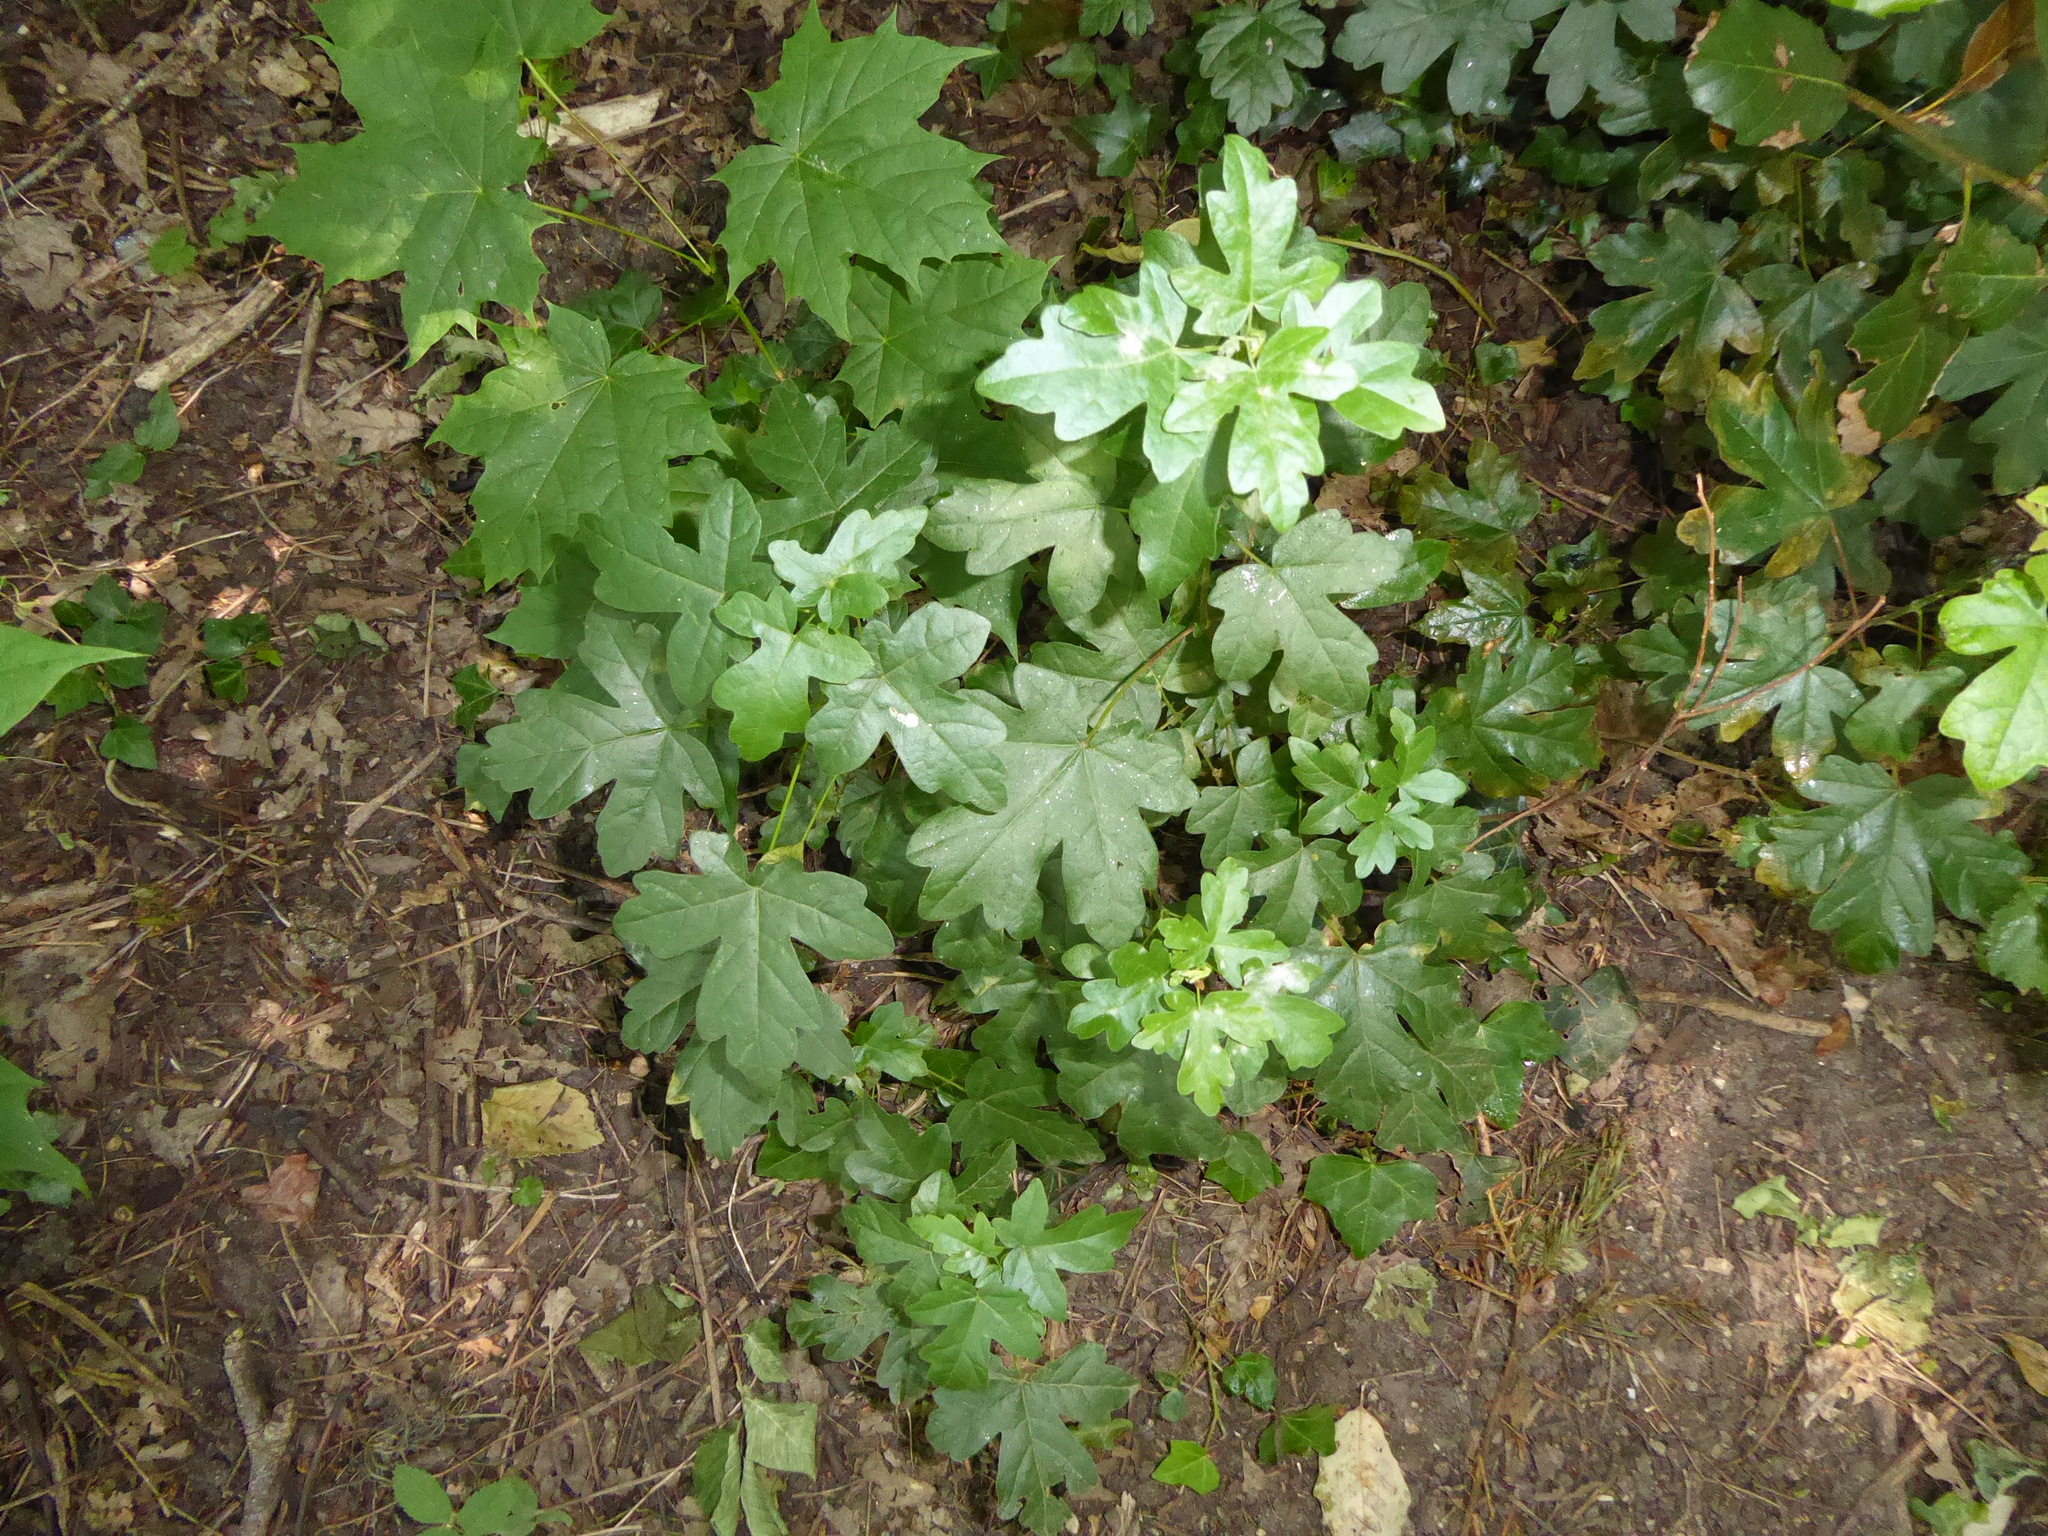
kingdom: Plantae
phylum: Tracheophyta
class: Magnoliopsida
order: Sapindales
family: Sapindaceae
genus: Acer
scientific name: Acer campestre
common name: Field maple
